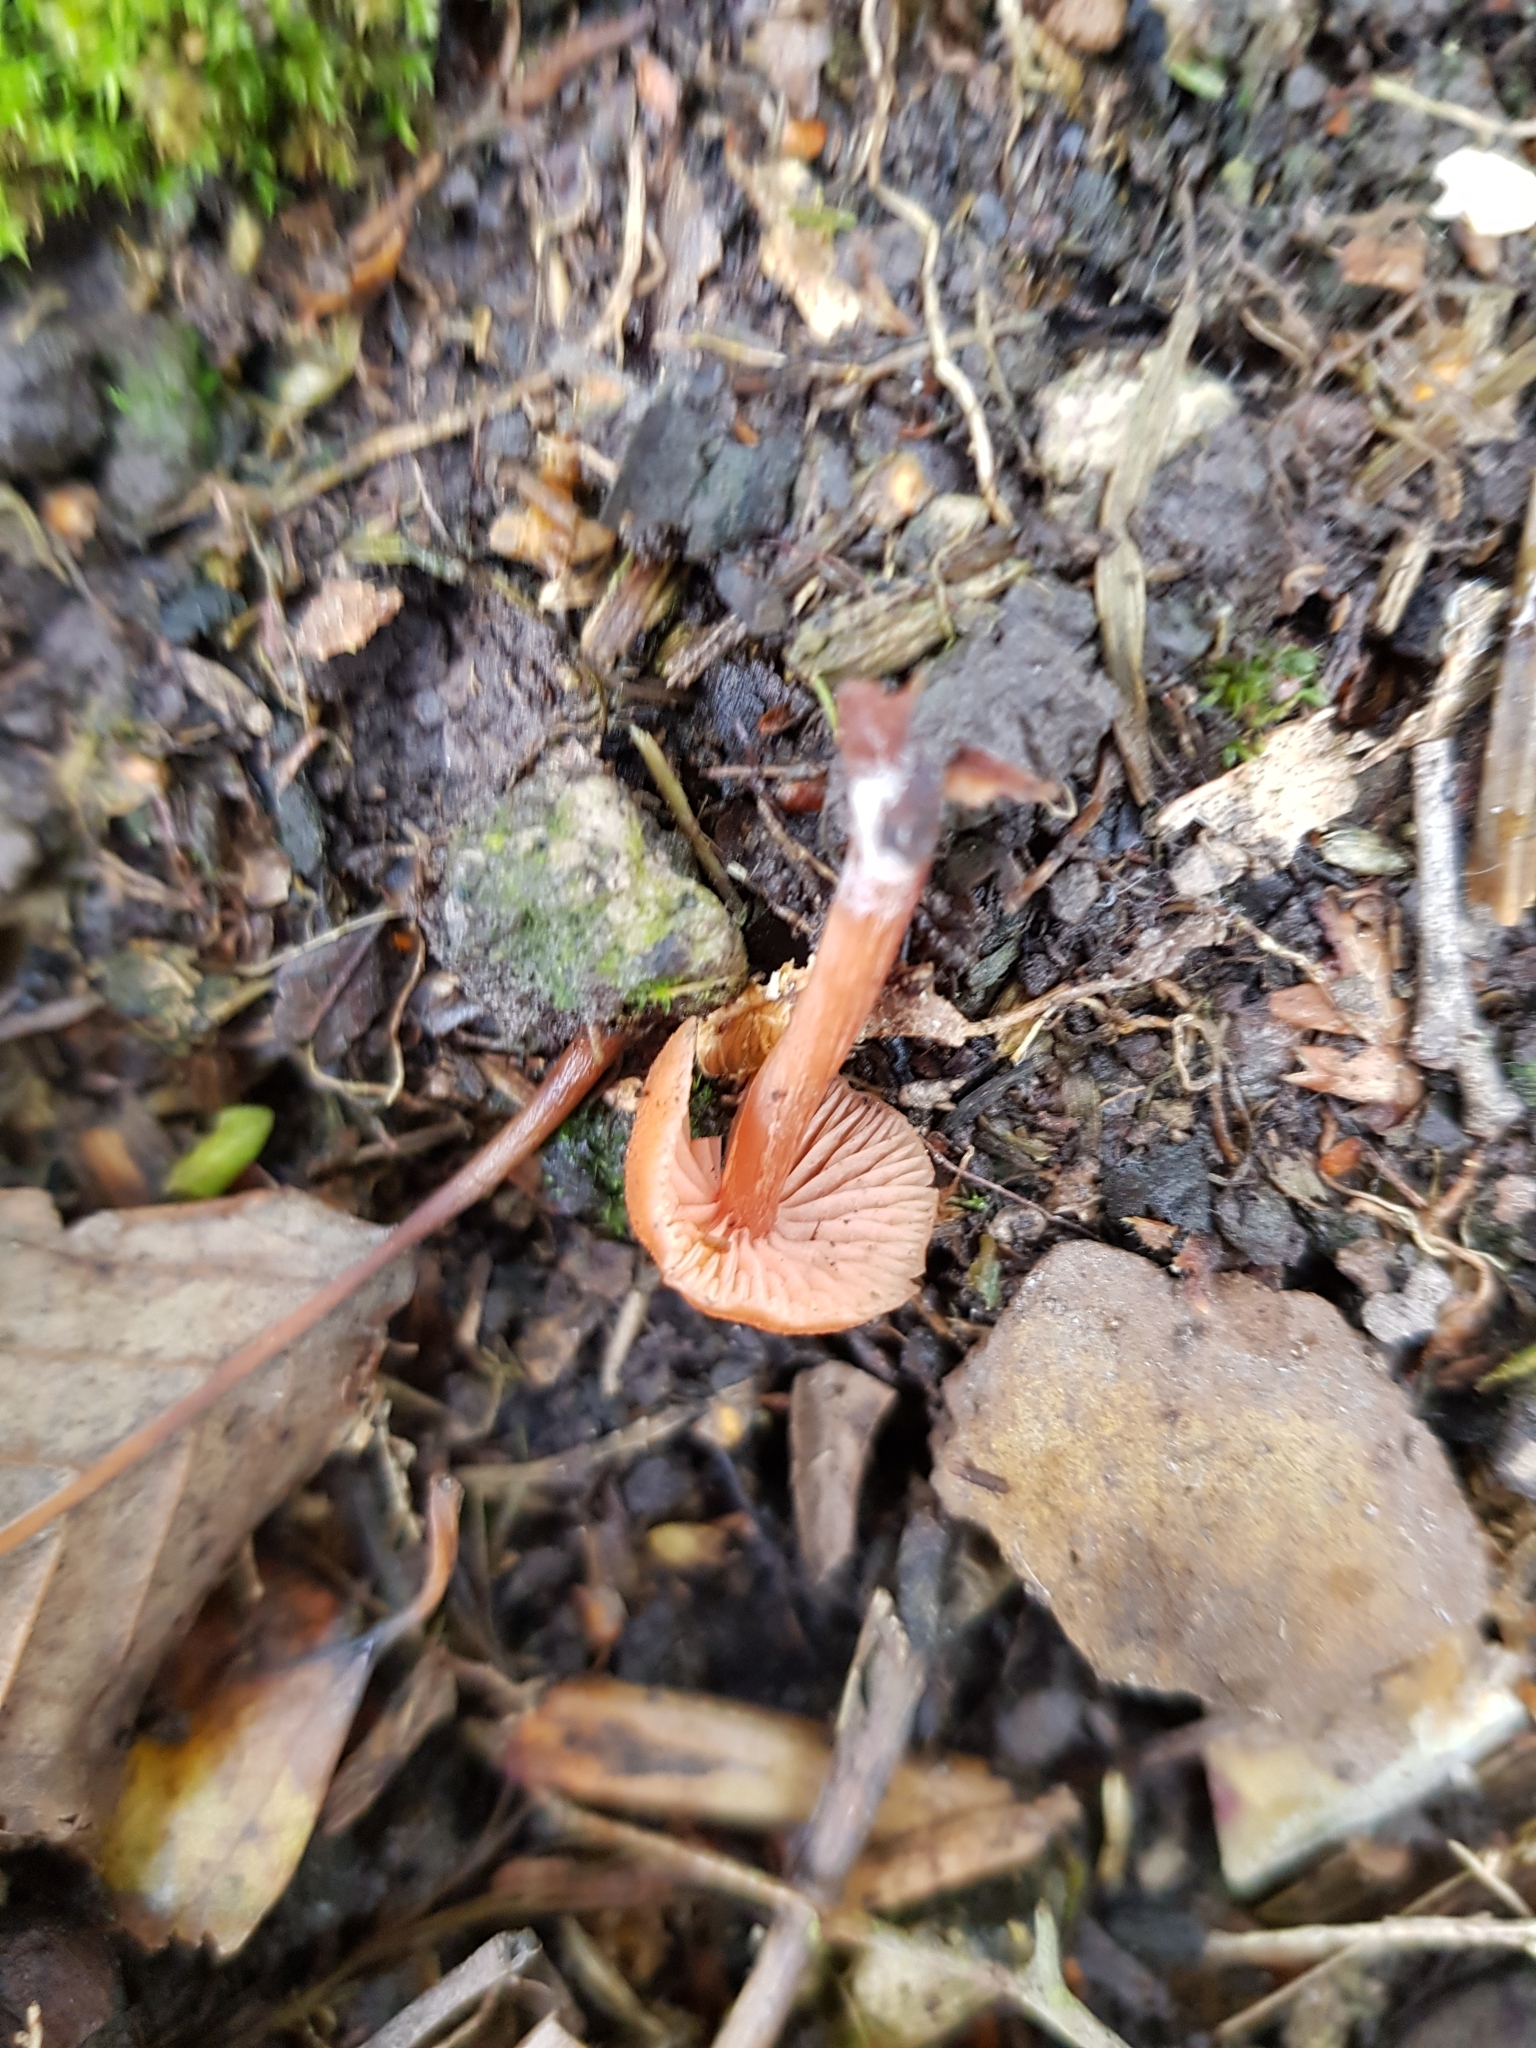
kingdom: Fungi
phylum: Basidiomycota
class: Agaricomycetes
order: Agaricales
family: Hydnangiaceae
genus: Laccaria
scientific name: Laccaria laccata
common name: Deceiver
